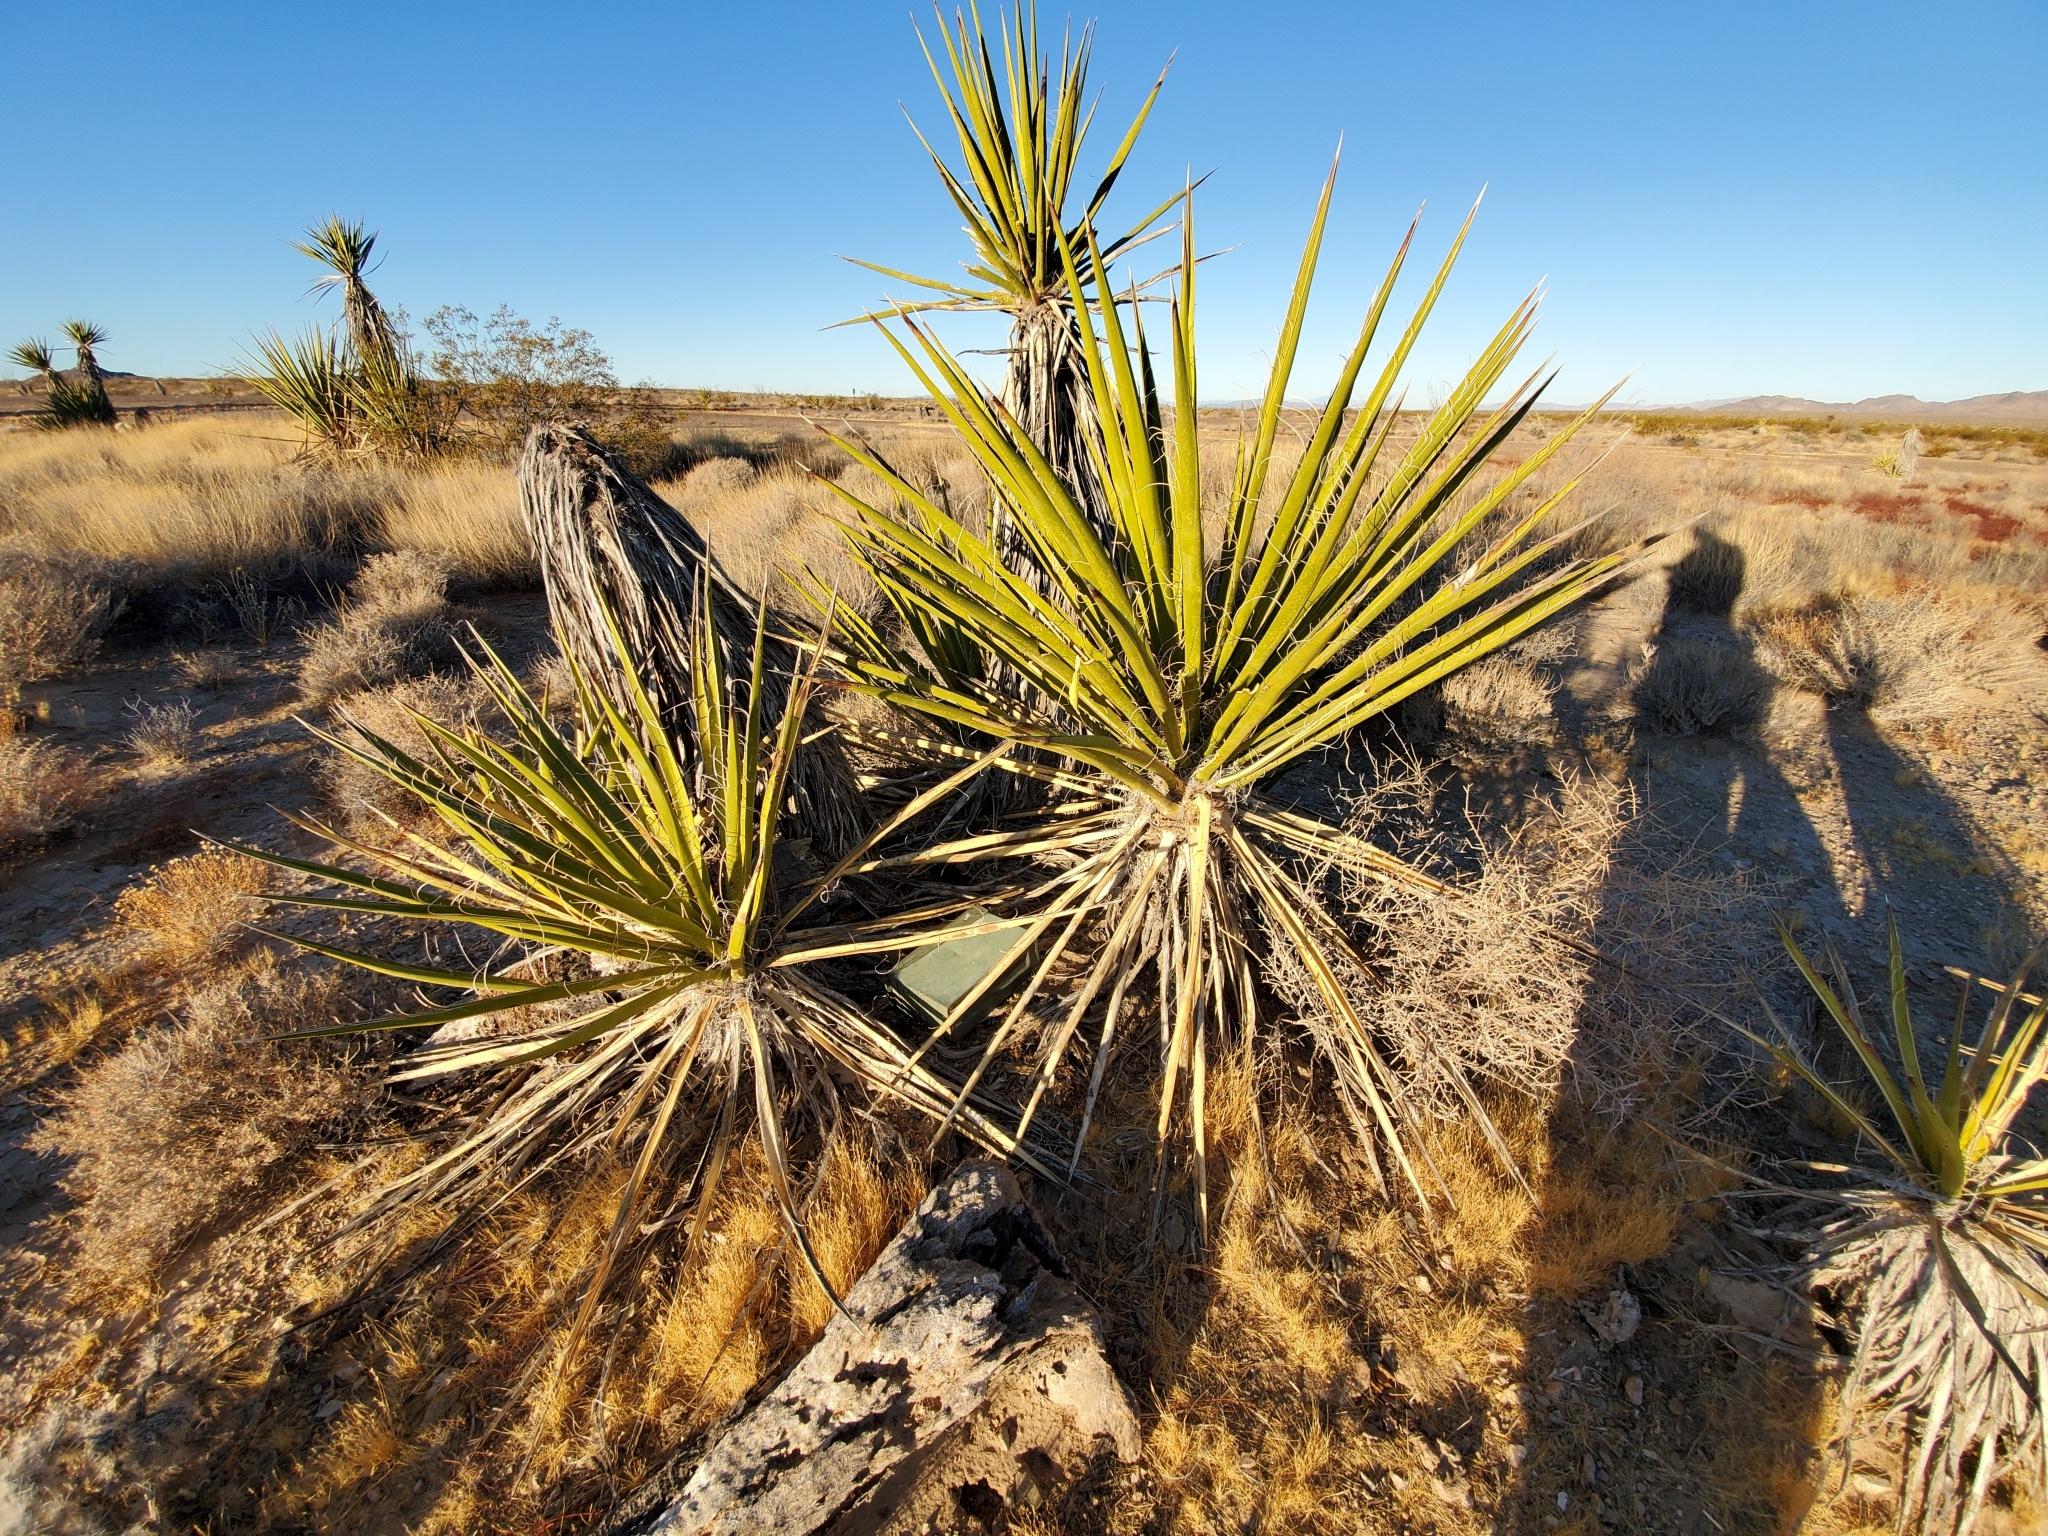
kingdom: Plantae
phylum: Tracheophyta
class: Liliopsida
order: Asparagales
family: Asparagaceae
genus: Yucca
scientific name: Yucca schidigera
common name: Mojave yucca
